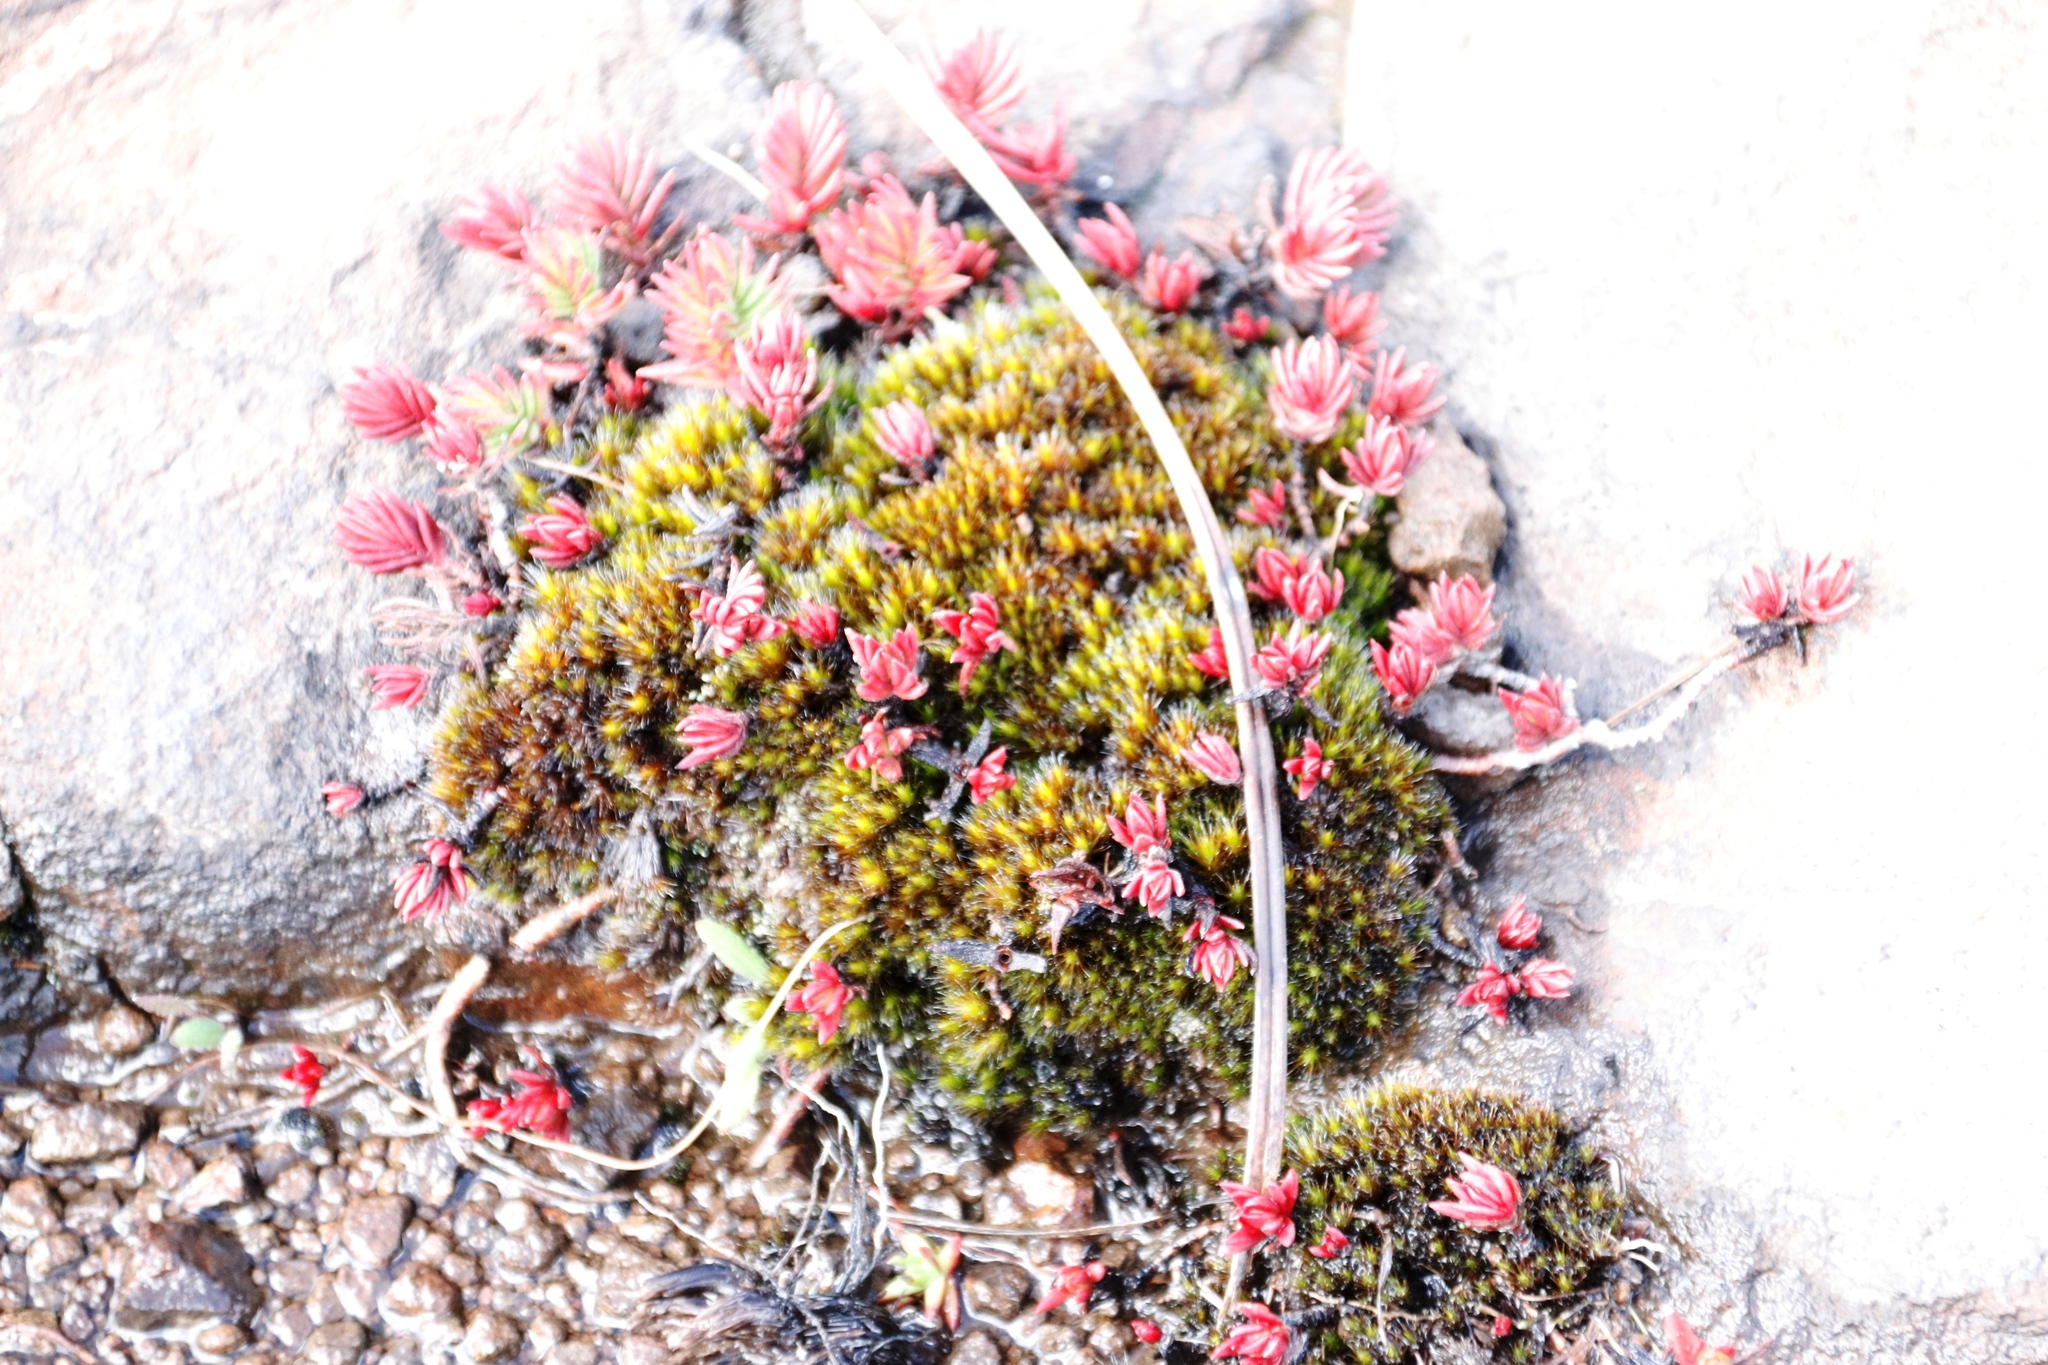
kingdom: Plantae
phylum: Tracheophyta
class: Magnoliopsida
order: Saxifragales
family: Crassulaceae
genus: Crassula
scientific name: Crassula dependens
